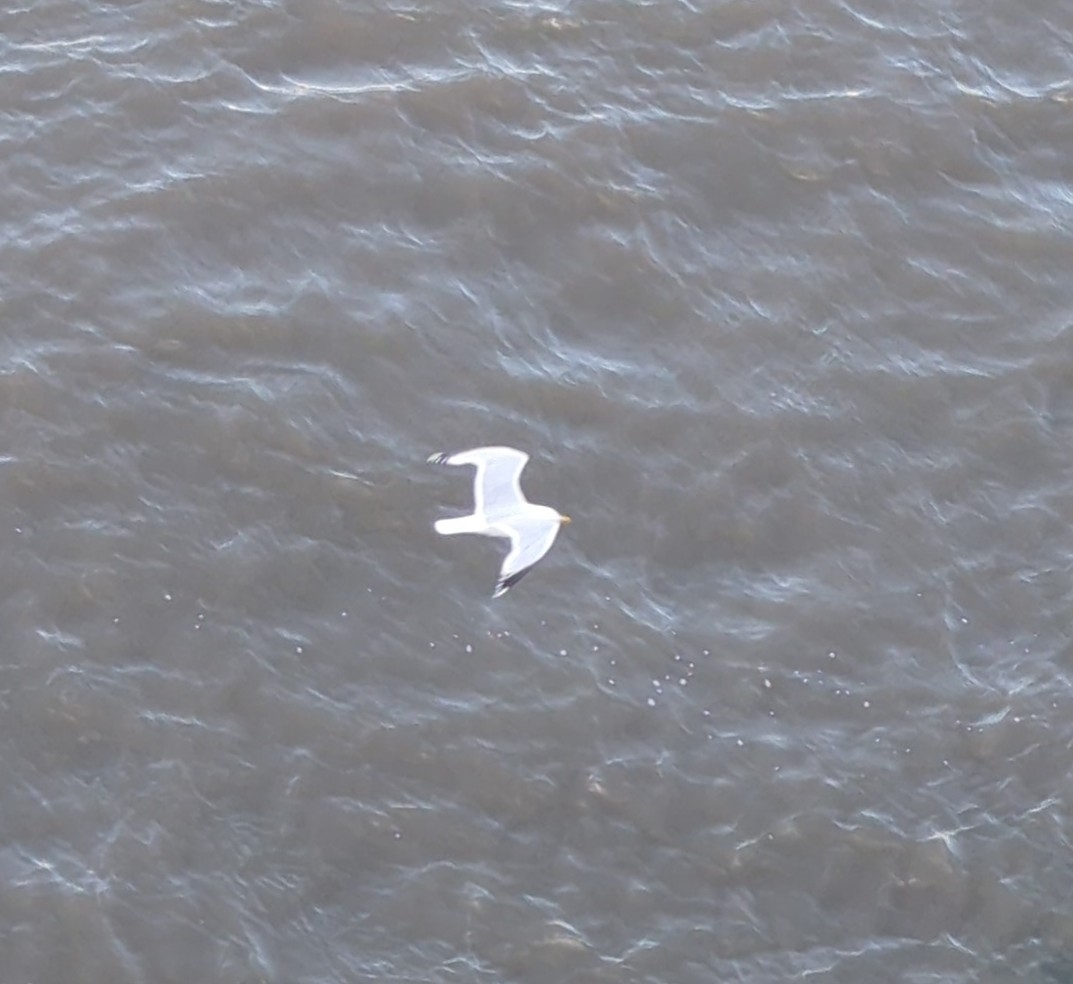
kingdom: Animalia
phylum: Chordata
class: Aves
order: Charadriiformes
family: Laridae
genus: Larus
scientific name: Larus argentatus
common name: Herring gull
